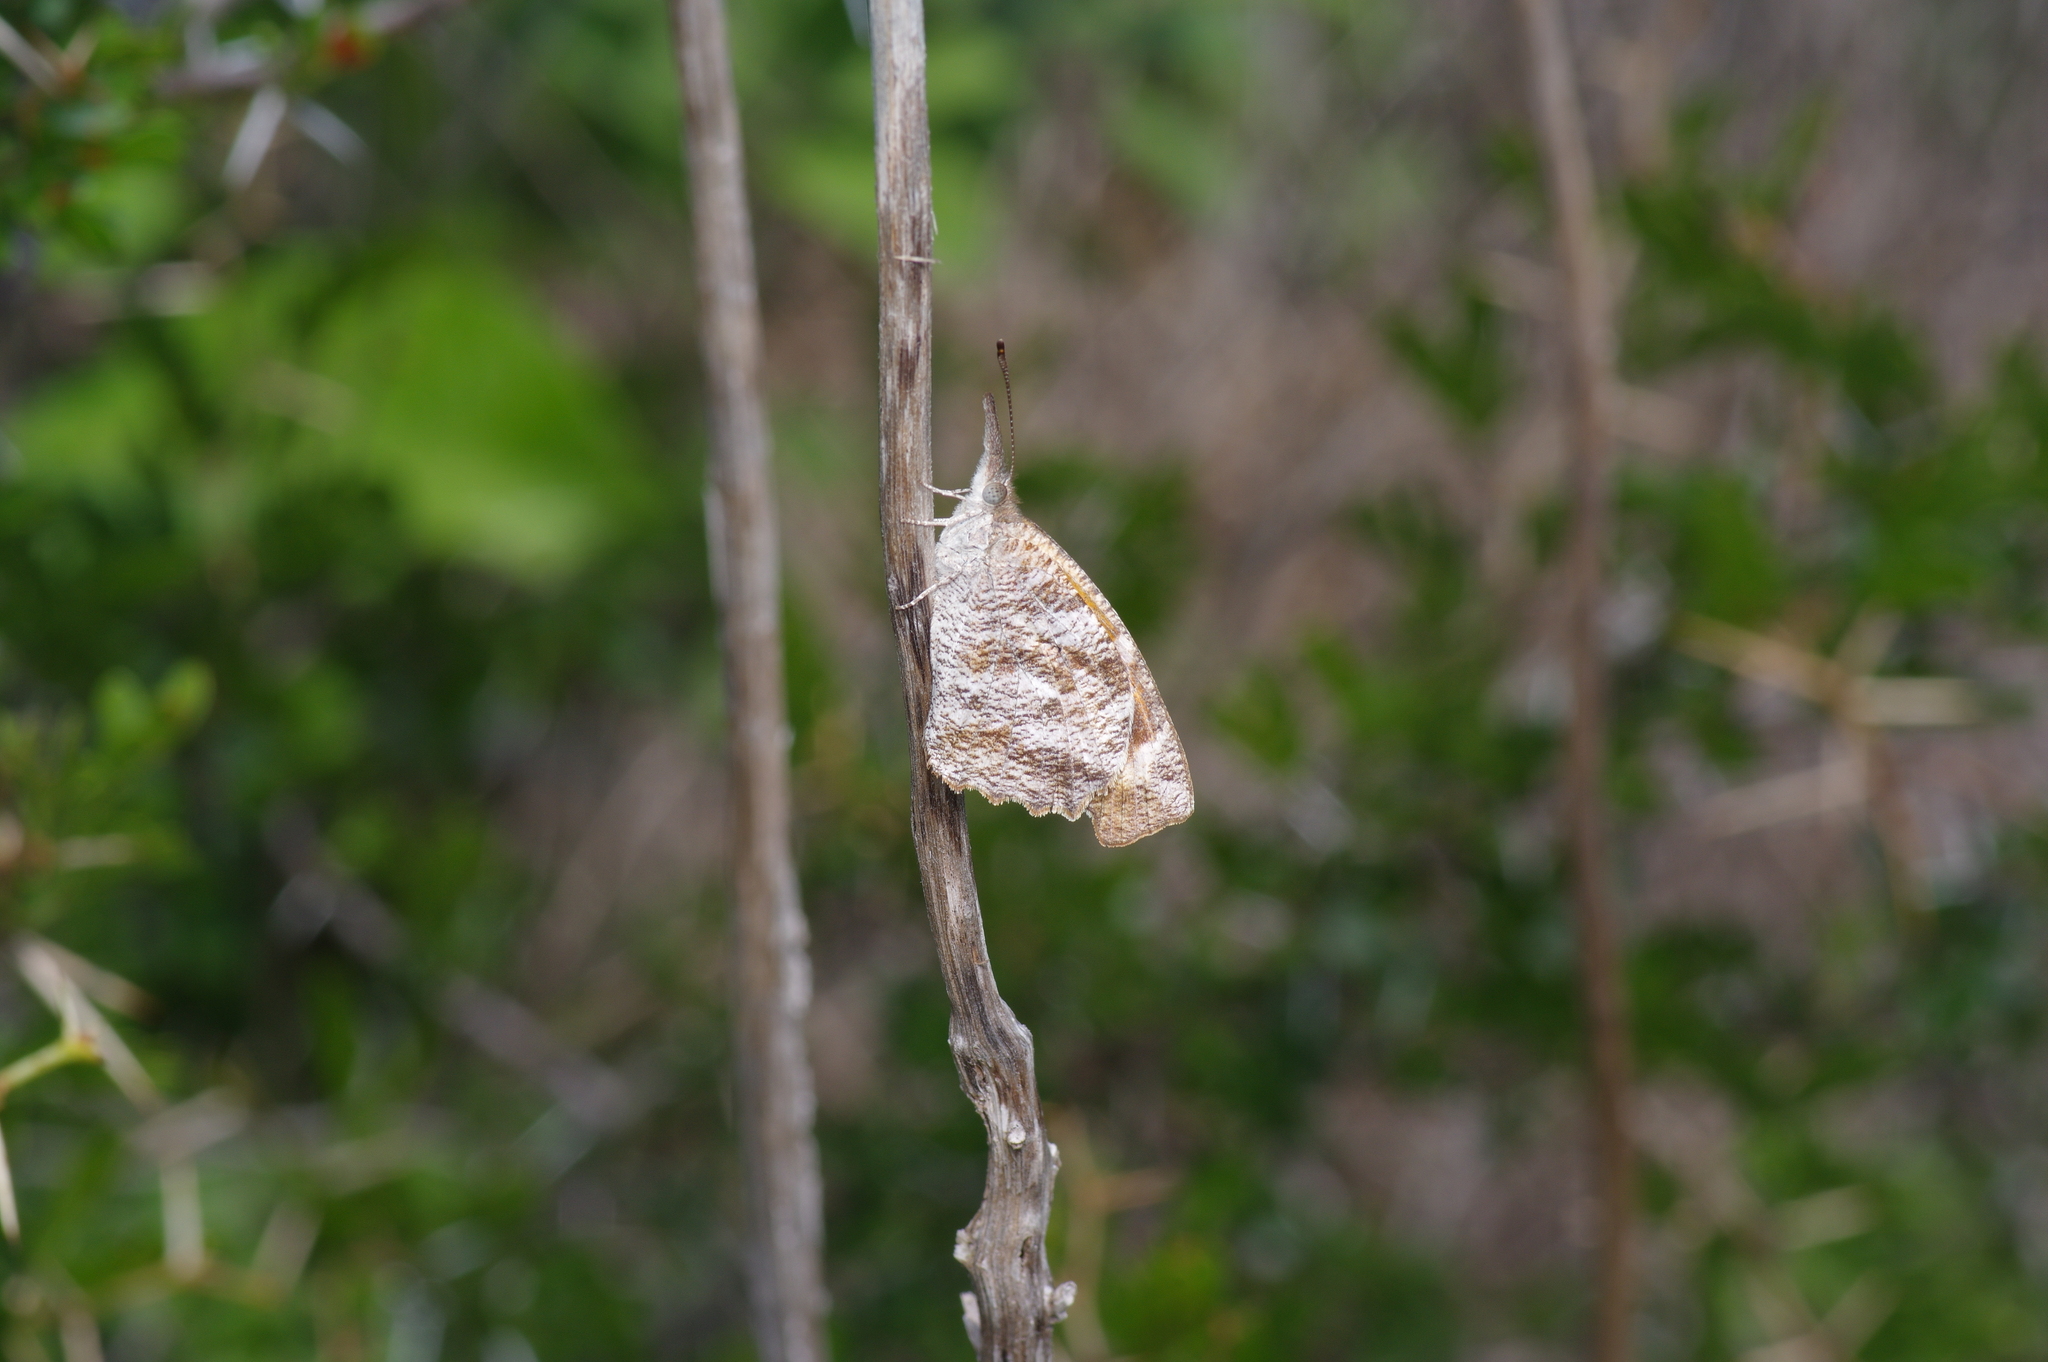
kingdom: Animalia
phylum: Arthropoda
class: Insecta
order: Lepidoptera
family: Nymphalidae
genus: Libytheana
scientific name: Libytheana carinenta
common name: American snout
